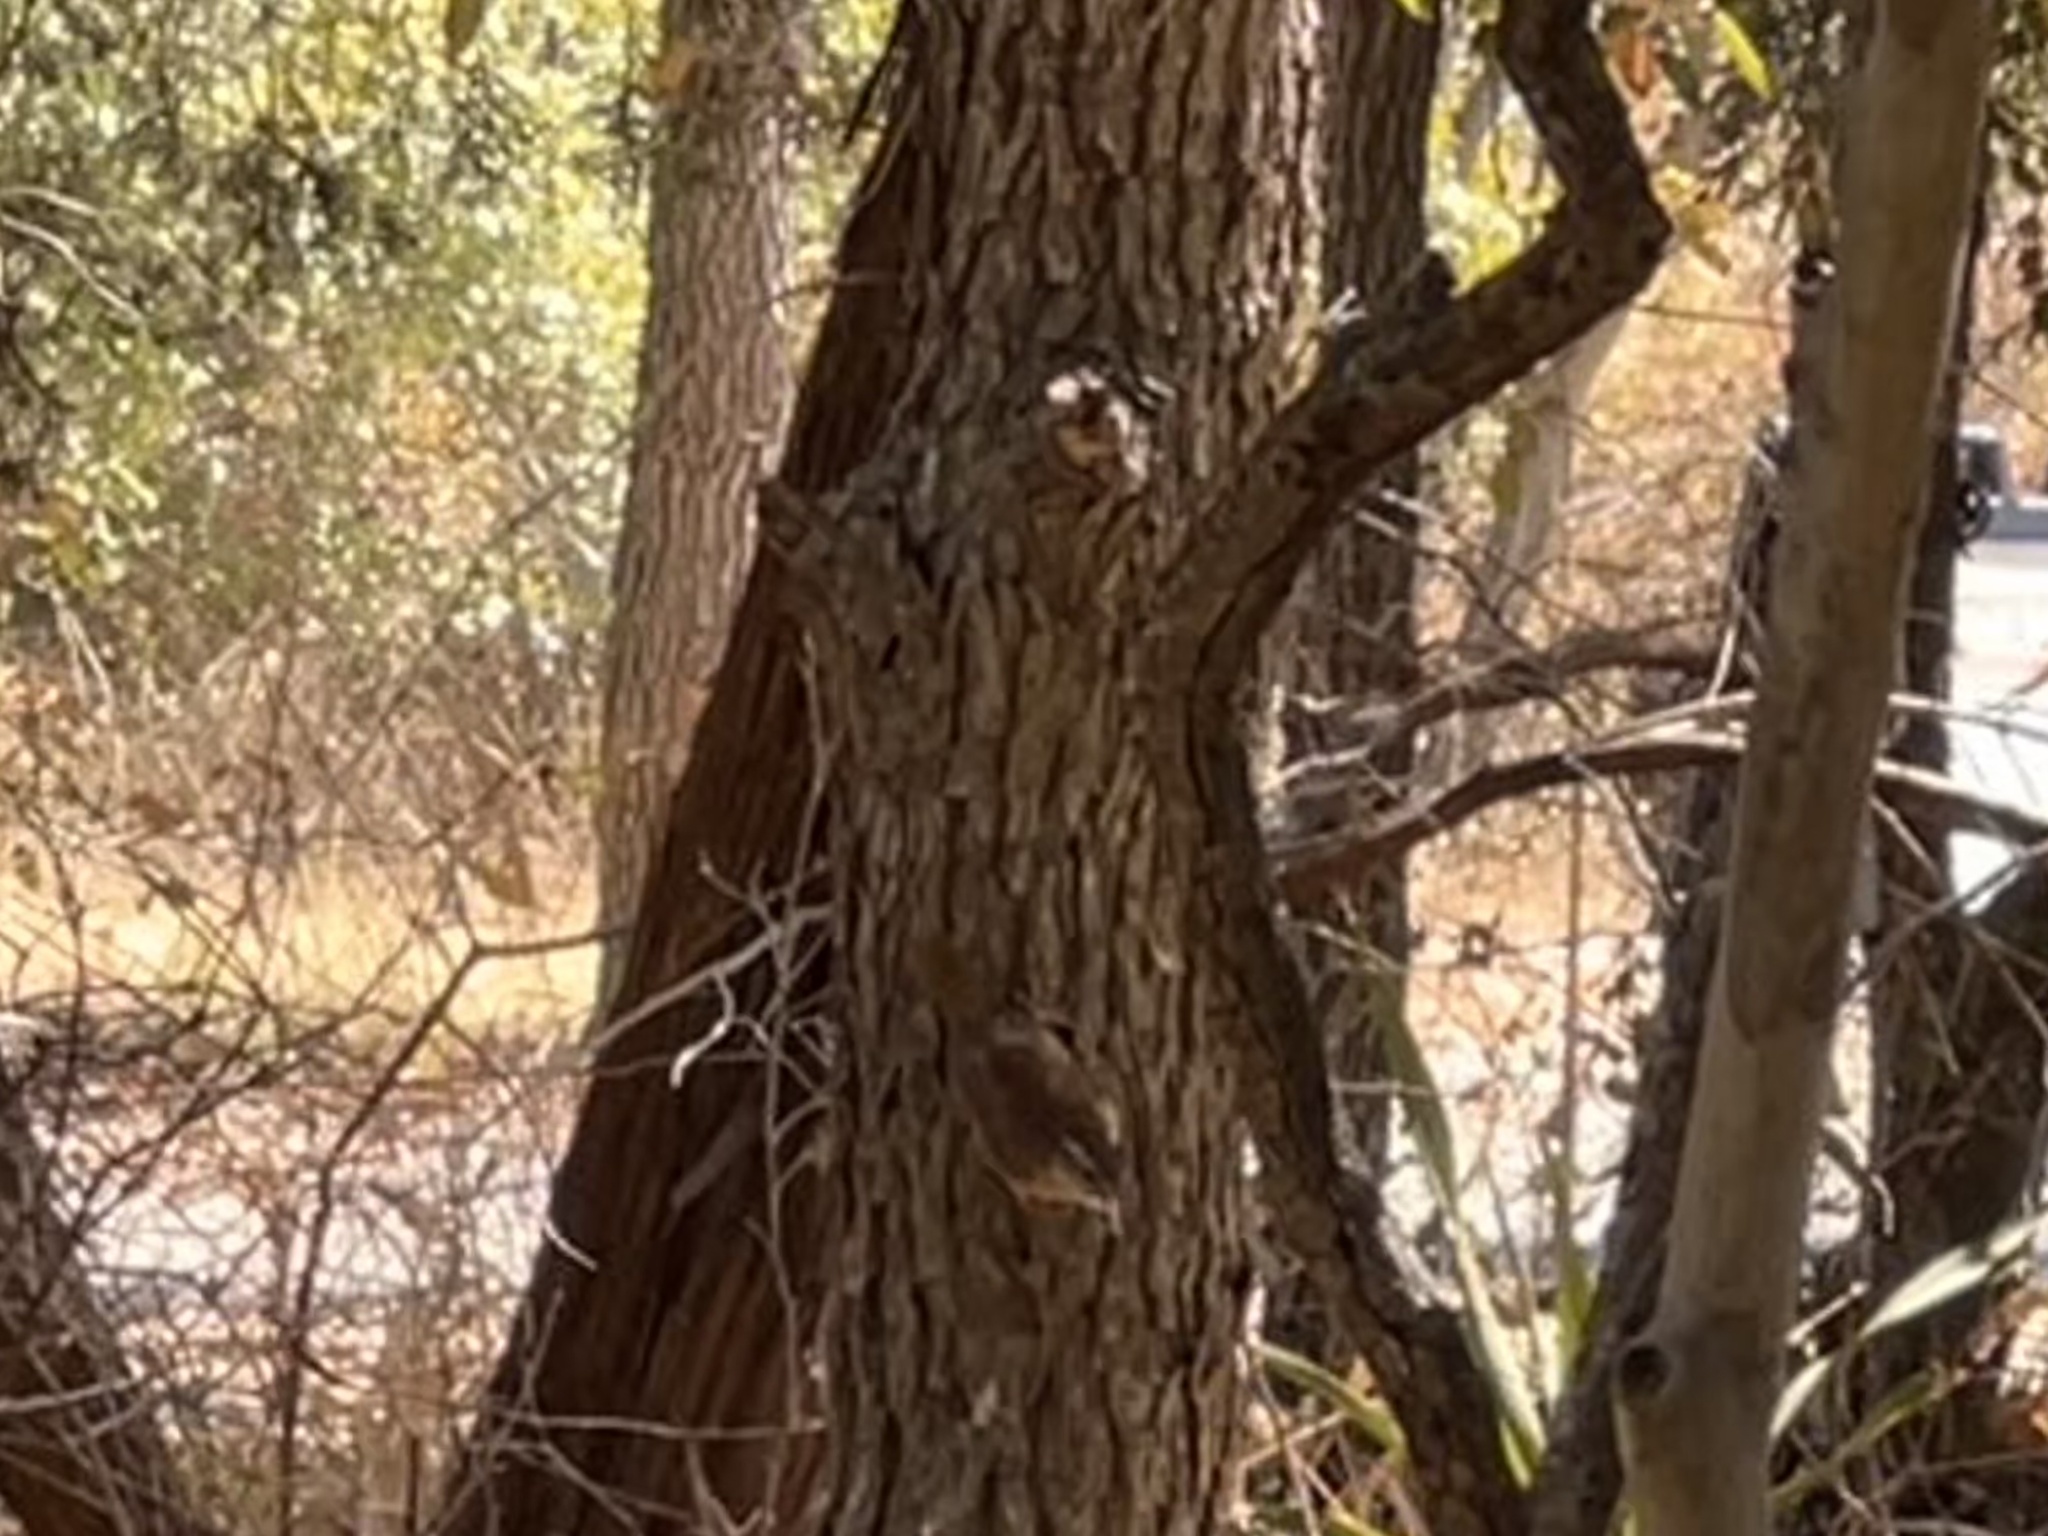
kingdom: Animalia
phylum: Chordata
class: Aves
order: Passeriformes
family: Troglodytidae
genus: Thryothorus
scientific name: Thryothorus ludovicianus
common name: Carolina wren
